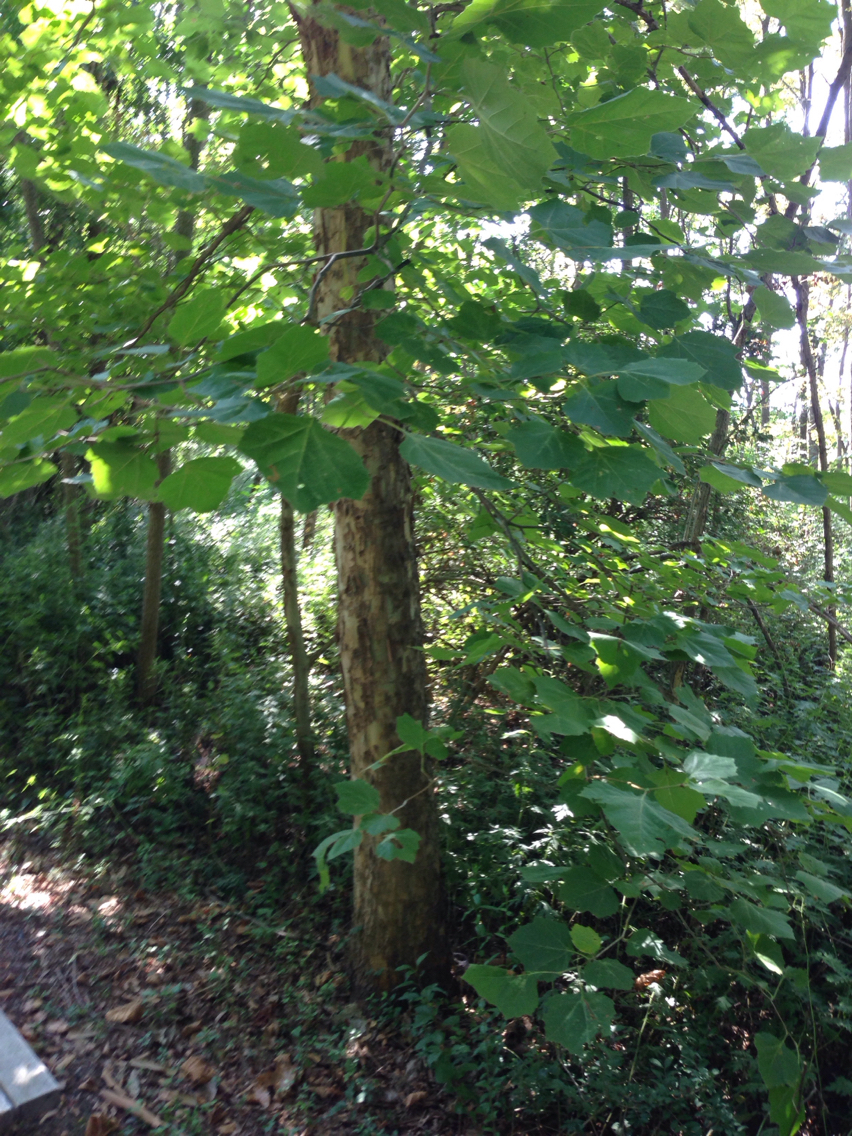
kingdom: Plantae
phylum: Tracheophyta
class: Magnoliopsida
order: Proteales
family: Platanaceae
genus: Platanus
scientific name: Platanus occidentalis
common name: American sycamore
